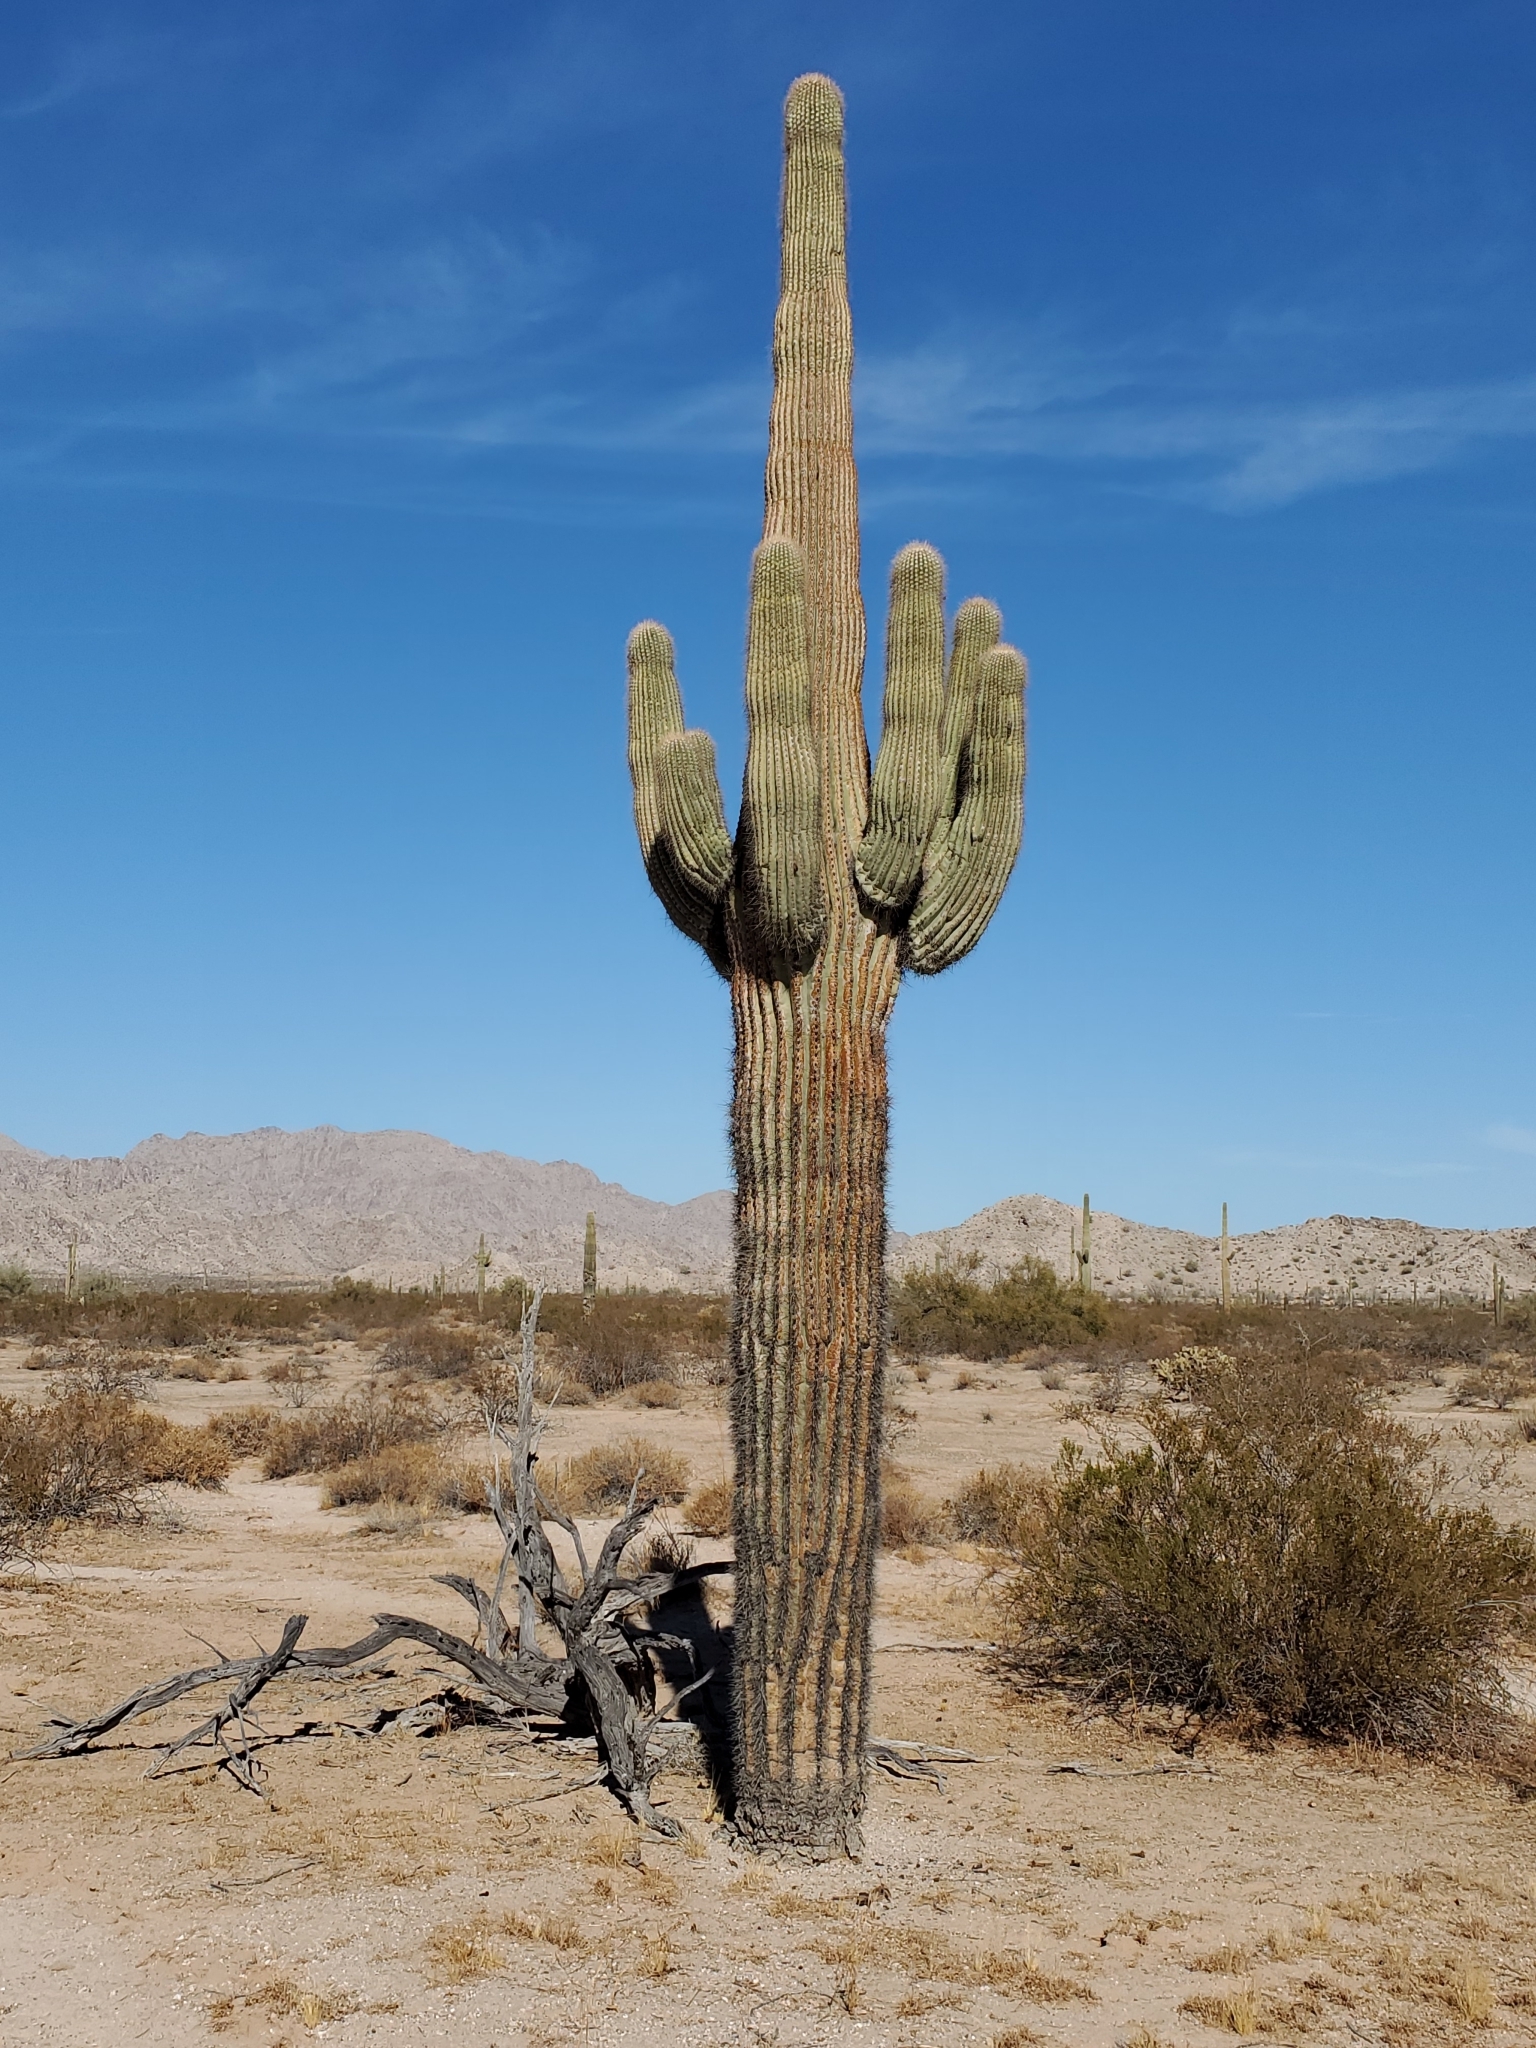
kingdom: Plantae
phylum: Tracheophyta
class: Magnoliopsida
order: Caryophyllales
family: Cactaceae
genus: Carnegiea
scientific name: Carnegiea gigantea
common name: Saguaro
